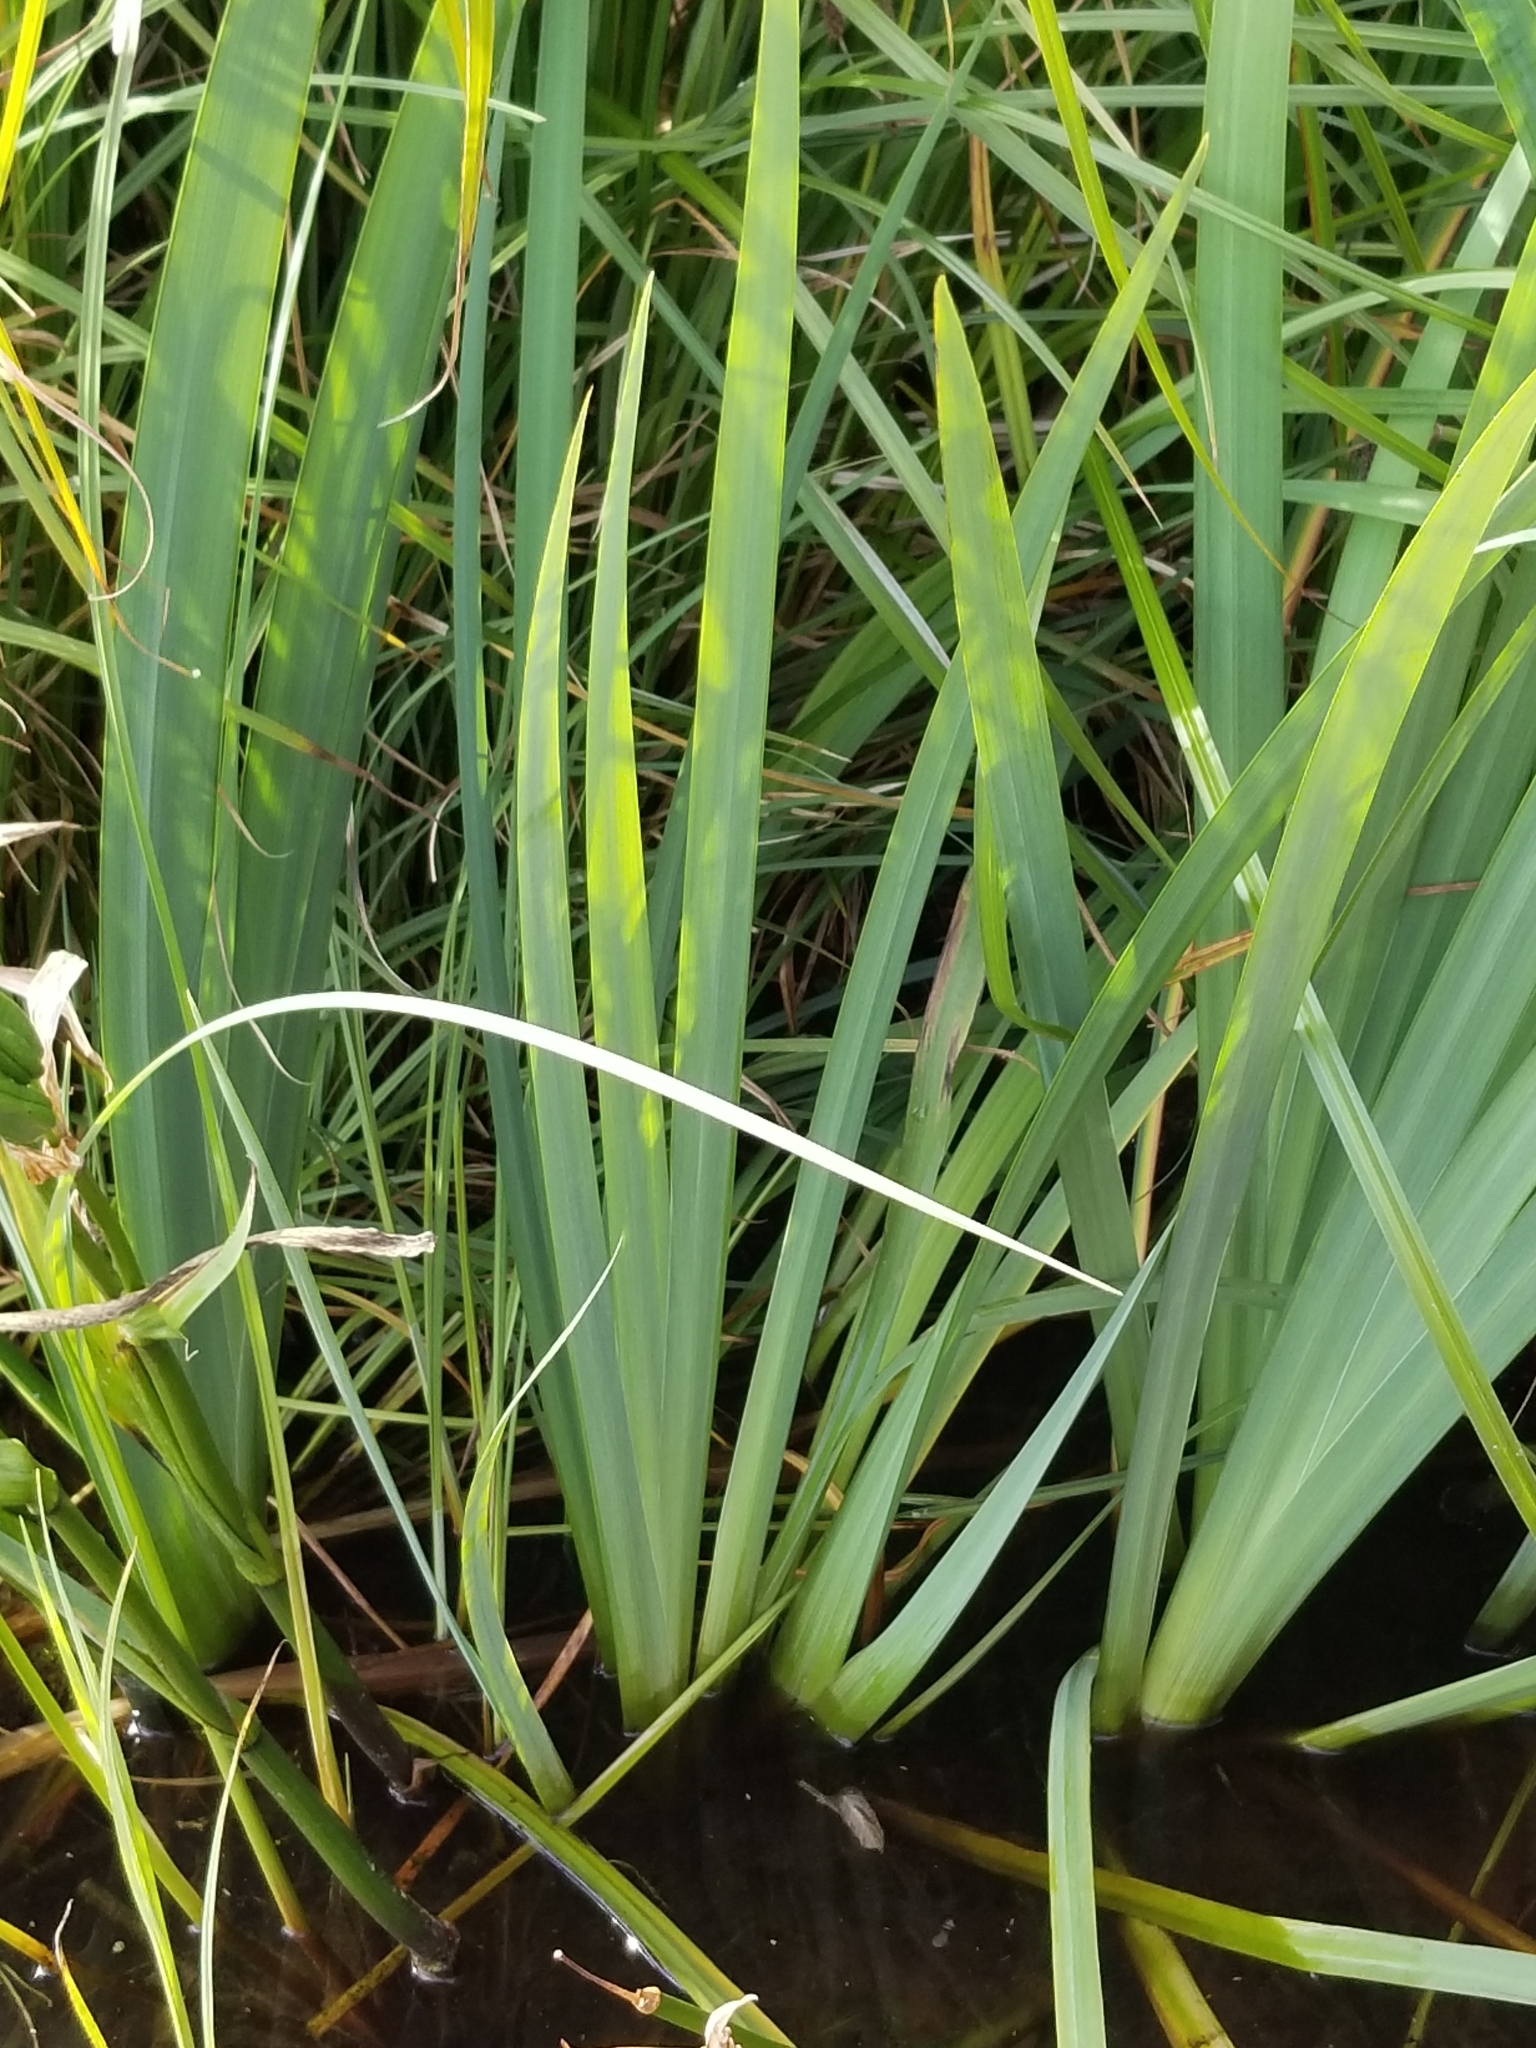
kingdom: Plantae
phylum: Tracheophyta
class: Liliopsida
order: Asparagales
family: Iridaceae
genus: Iris
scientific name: Iris pseudacorus
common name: Yellow flag
